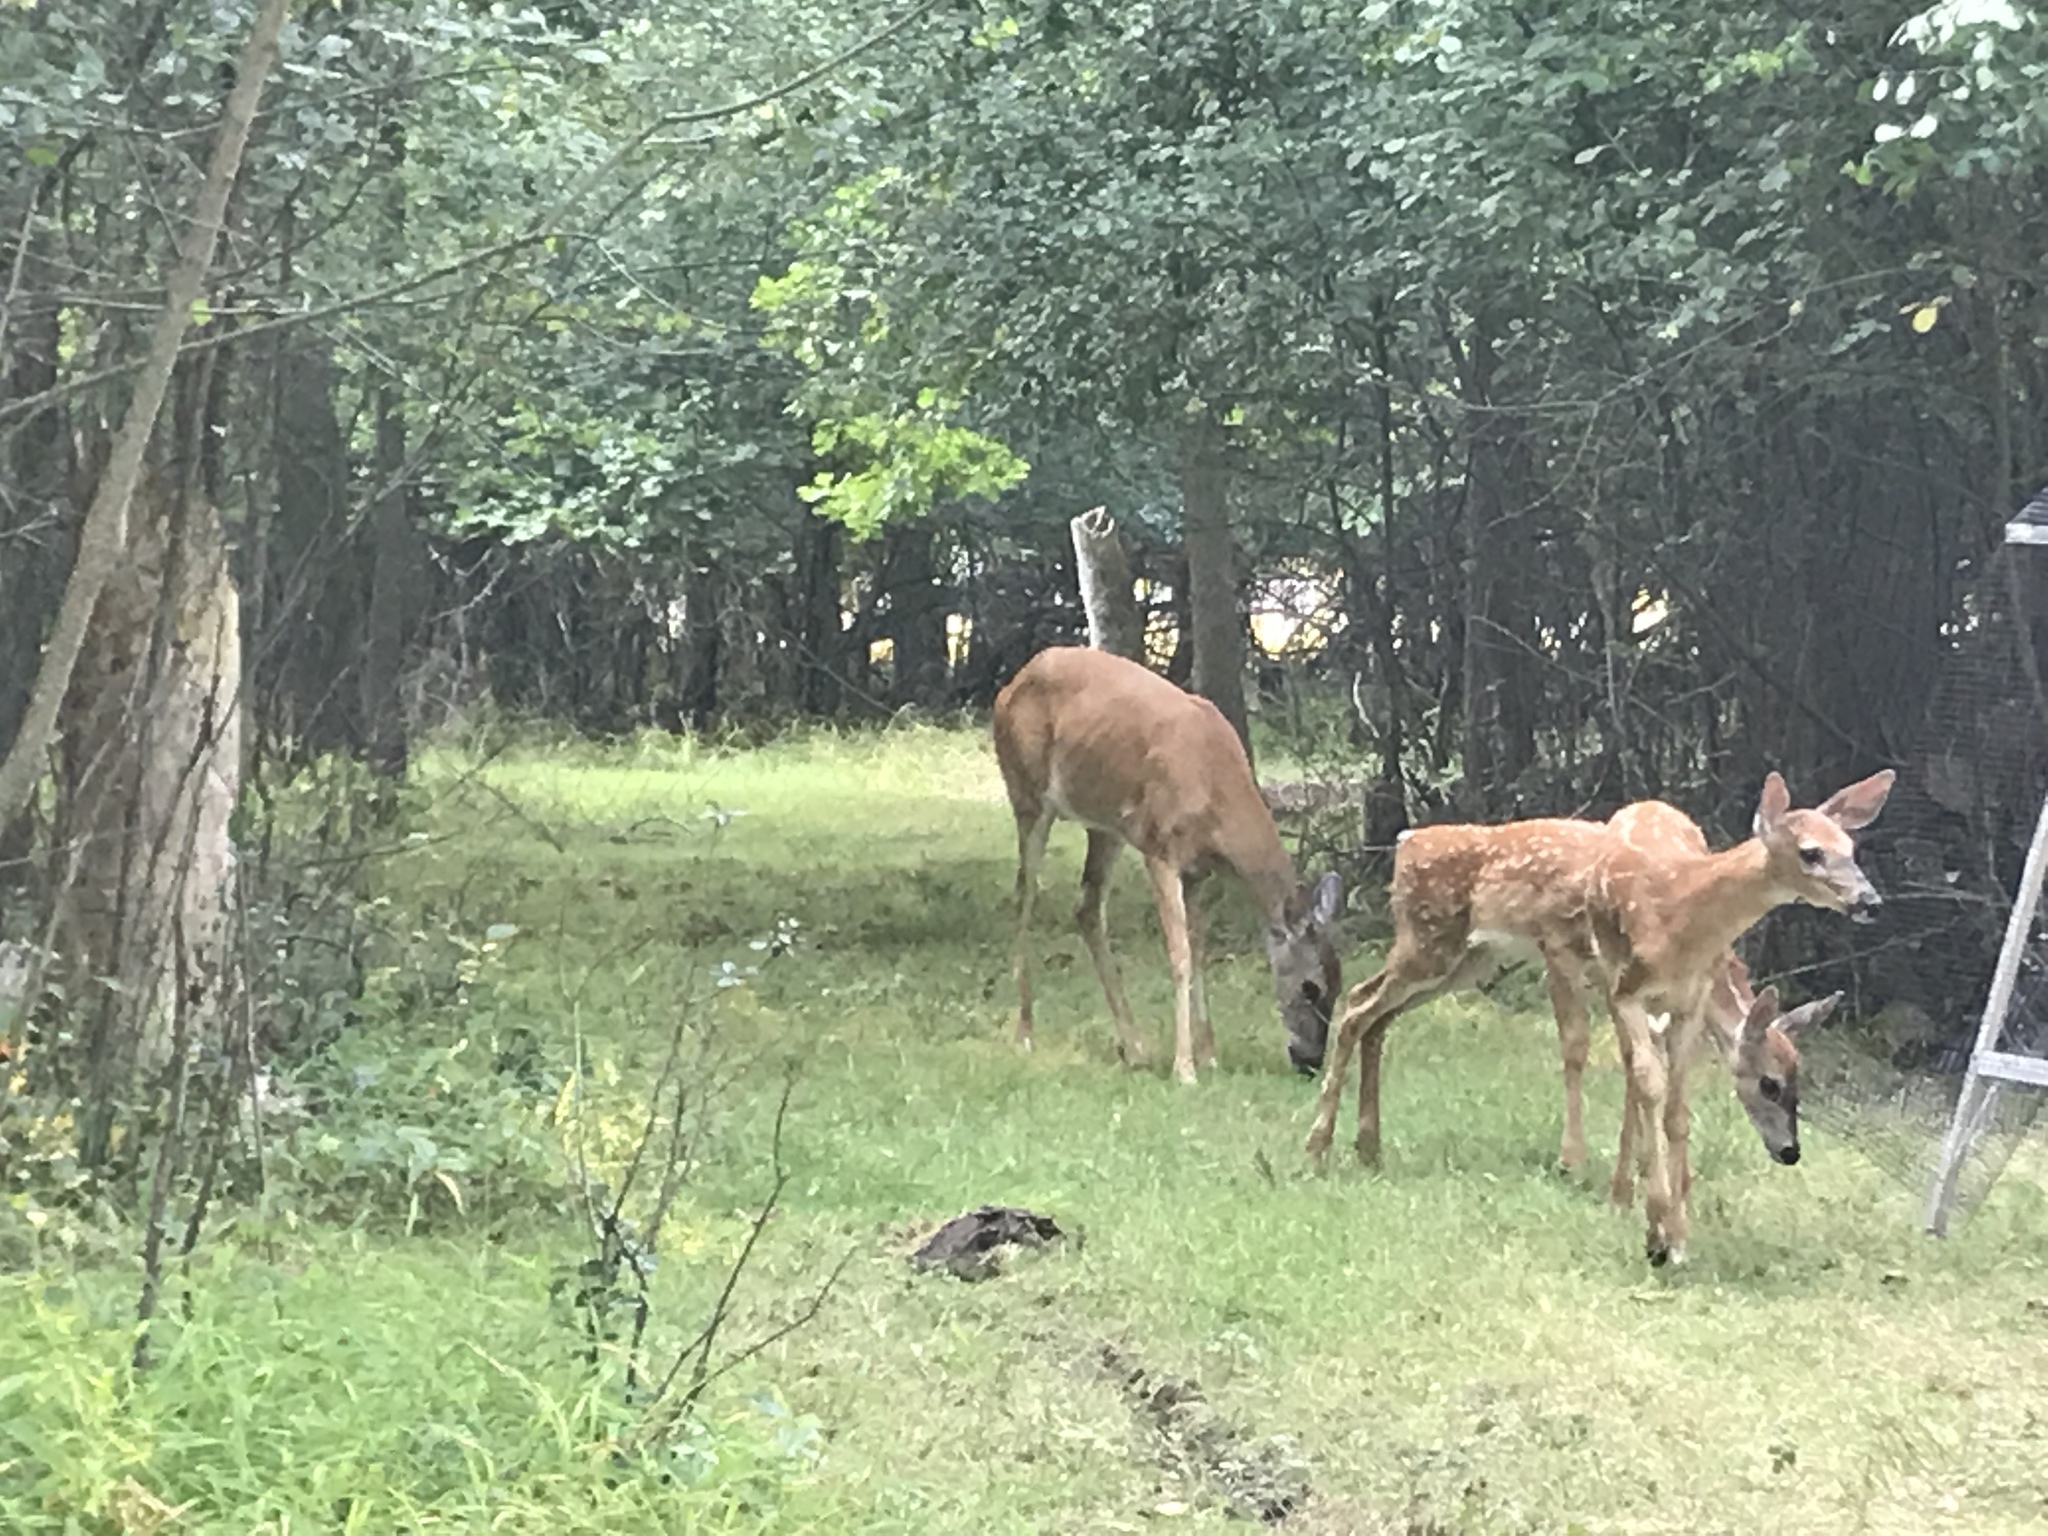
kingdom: Animalia
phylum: Chordata
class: Mammalia
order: Artiodactyla
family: Cervidae
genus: Odocoileus
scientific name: Odocoileus virginianus
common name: White-tailed deer
